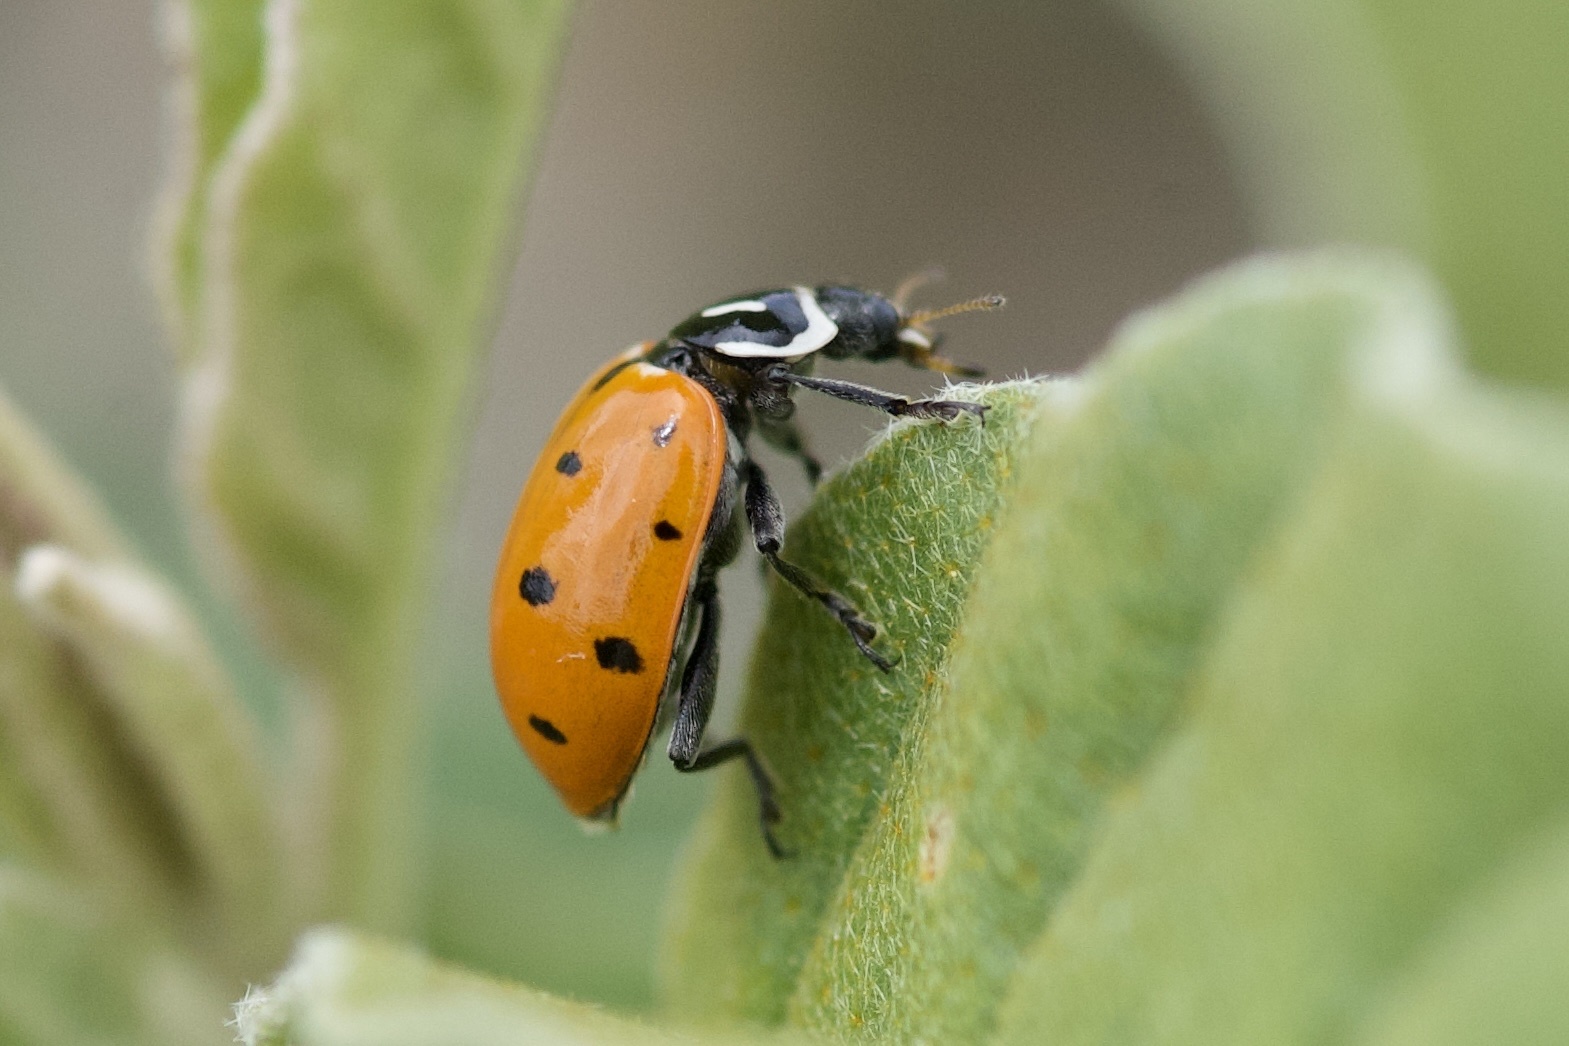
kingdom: Animalia
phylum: Arthropoda
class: Insecta
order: Coleoptera
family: Coccinellidae
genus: Hippodamia
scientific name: Hippodamia convergens
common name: Convergent lady beetle
